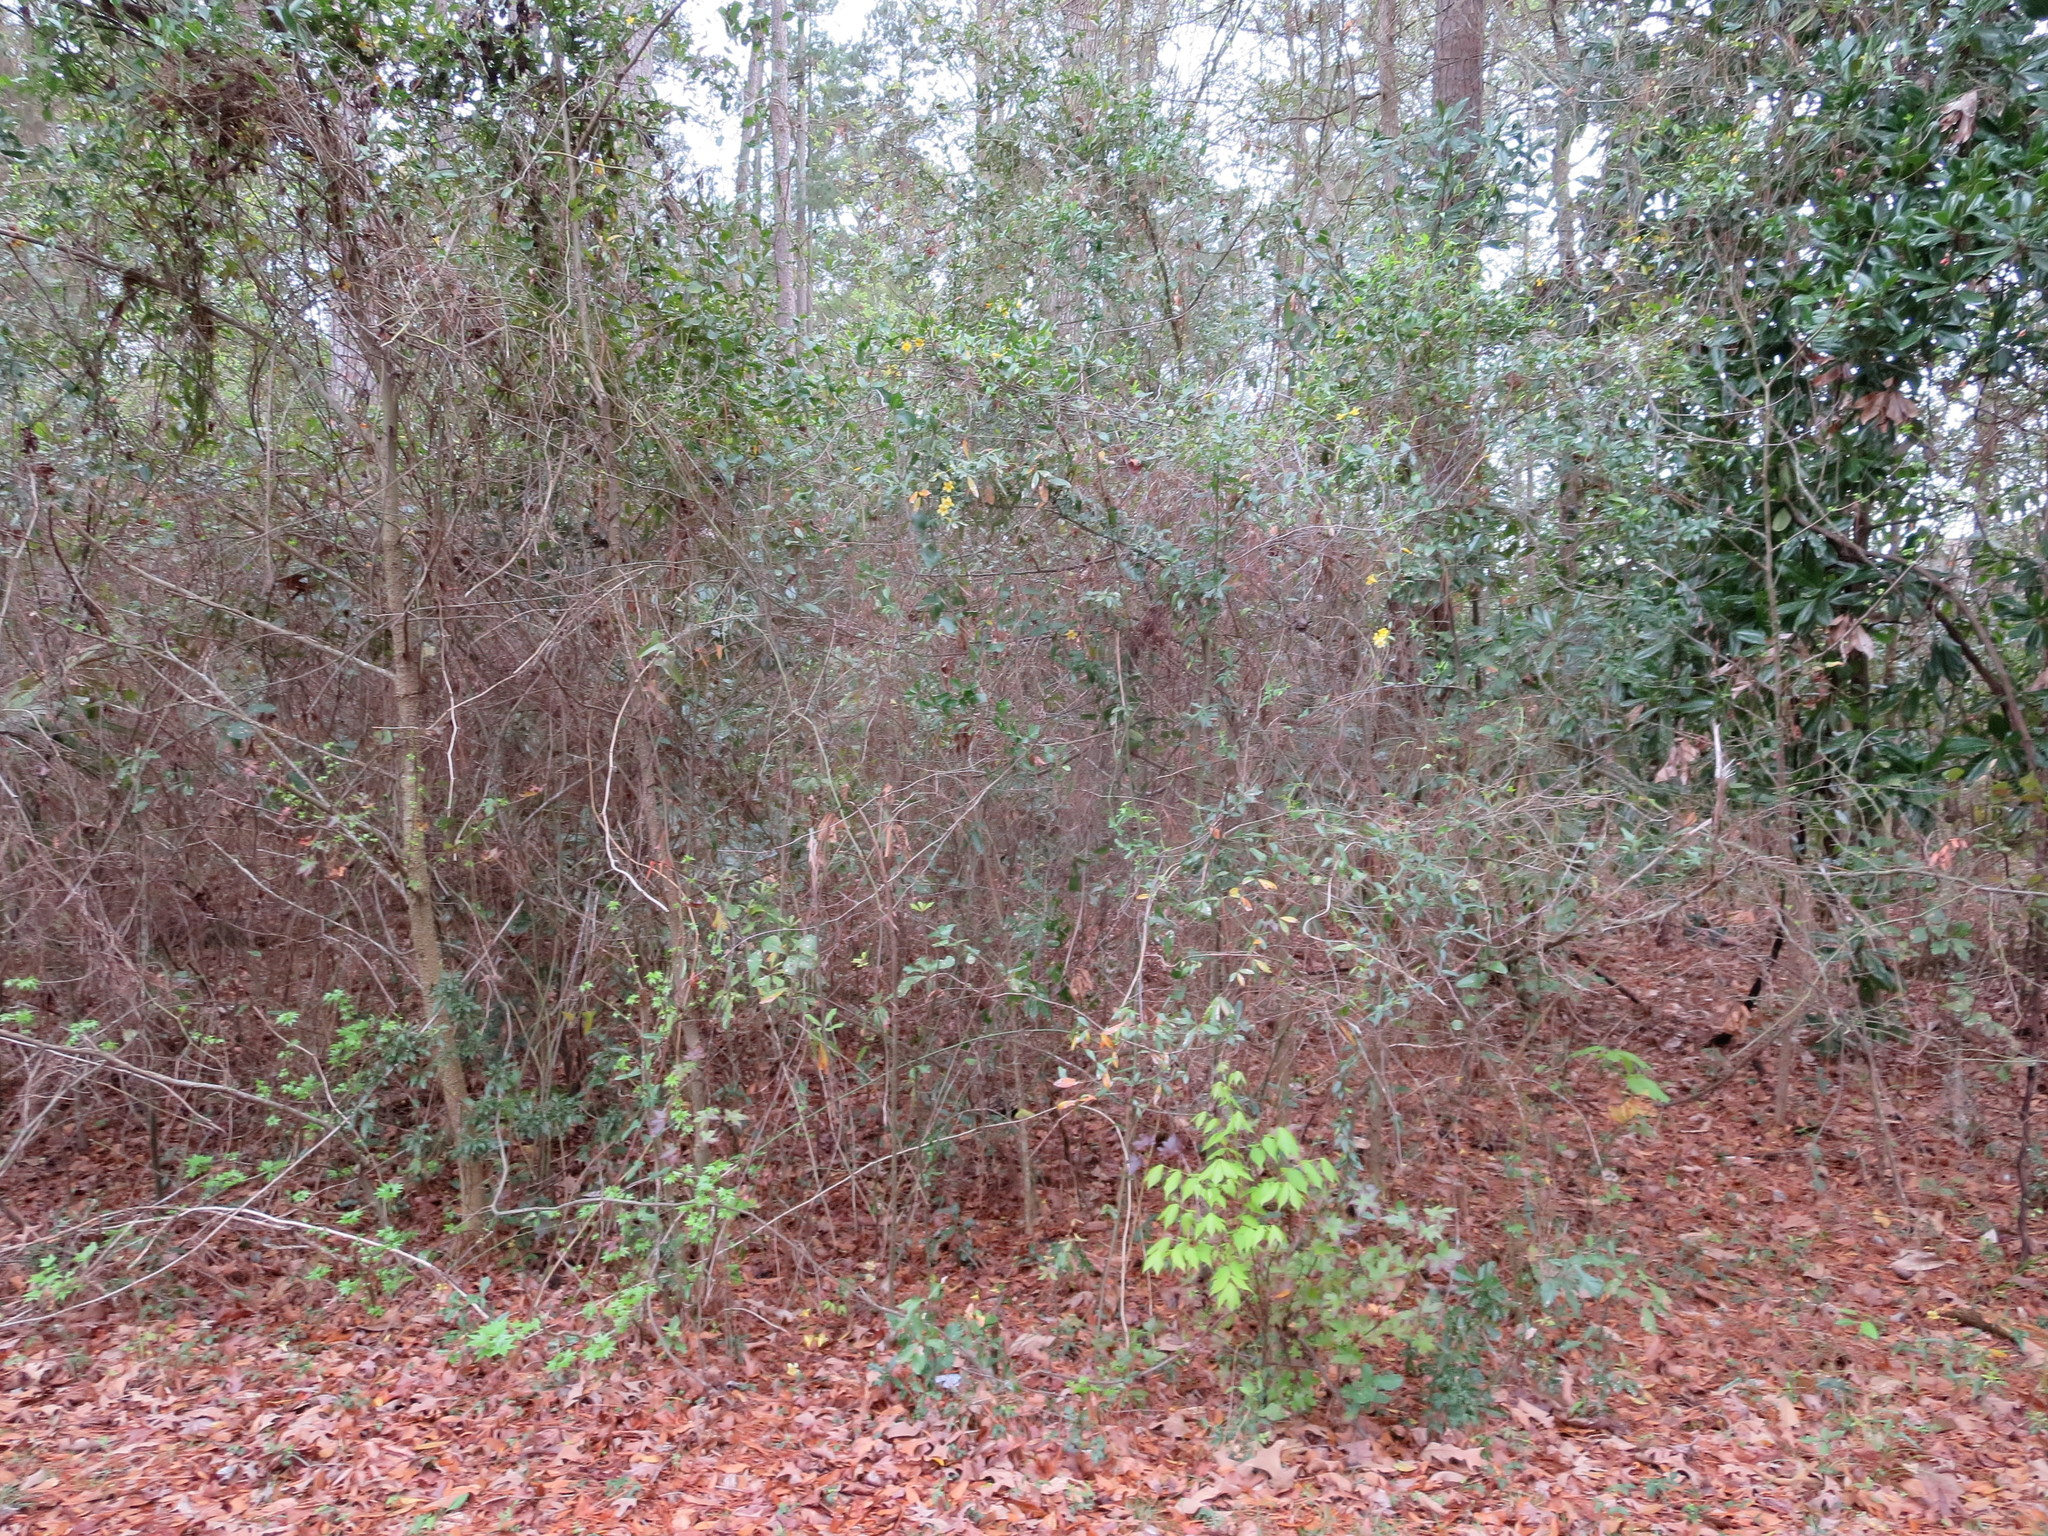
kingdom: Plantae
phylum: Tracheophyta
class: Magnoliopsida
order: Gentianales
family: Gelsemiaceae
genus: Gelsemium
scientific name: Gelsemium sempervirens
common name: Carolina-jasmine
